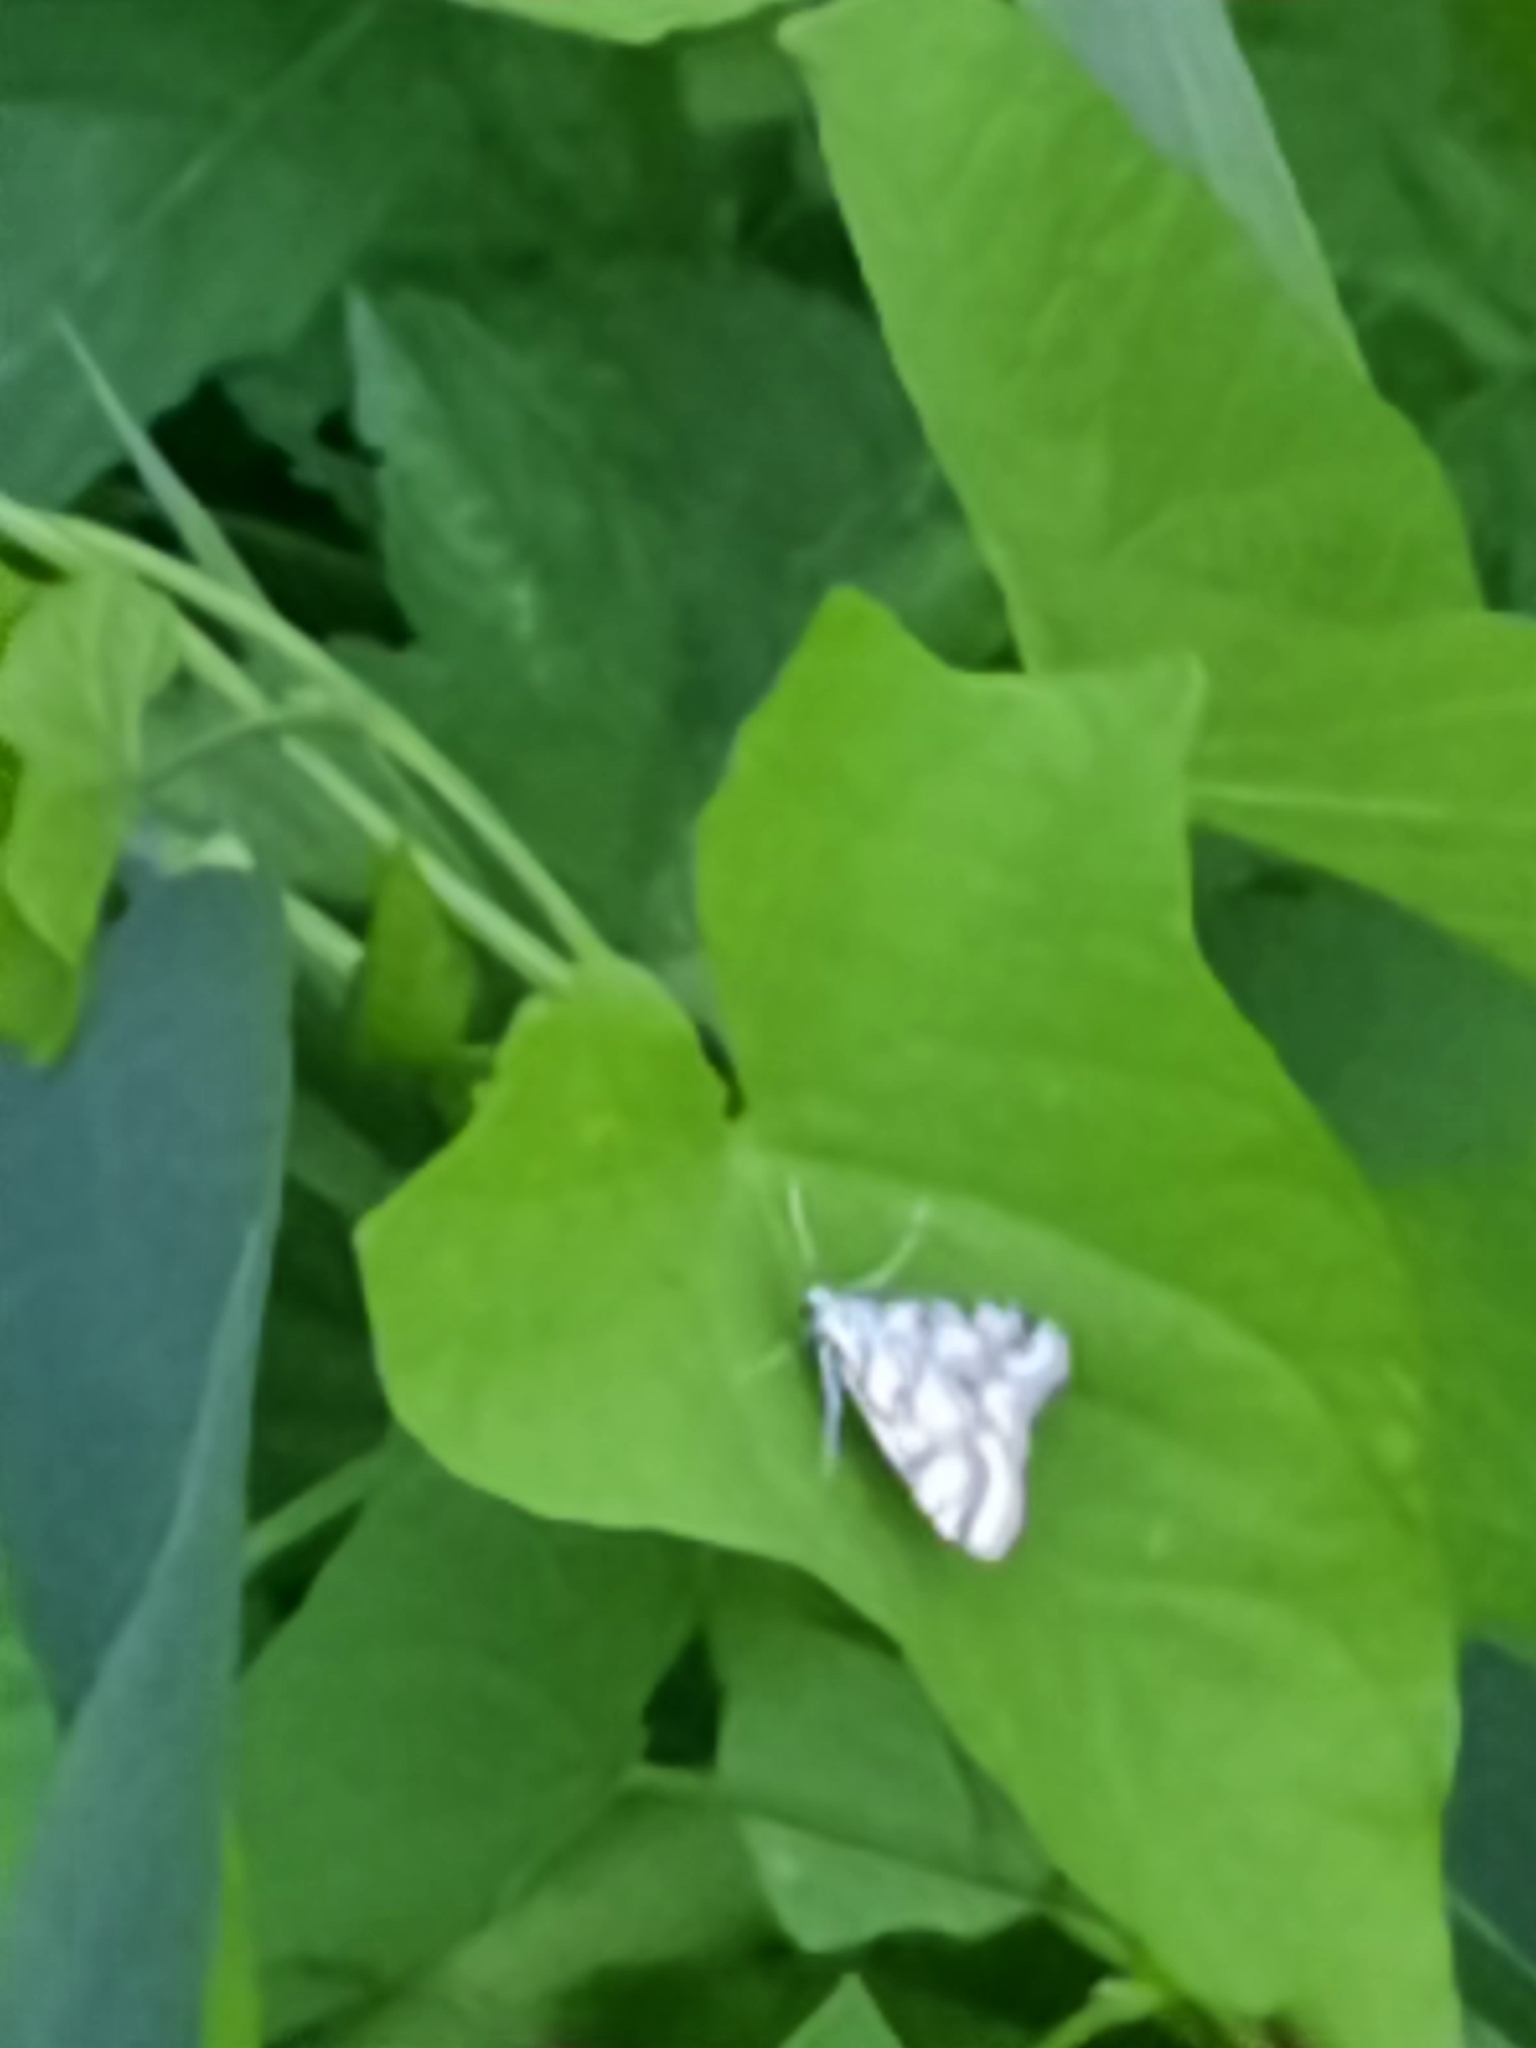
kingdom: Animalia
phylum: Arthropoda
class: Insecta
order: Lepidoptera
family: Crambidae
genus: Nymphula
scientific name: Nymphula nitidulata
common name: Beautiful china mark
